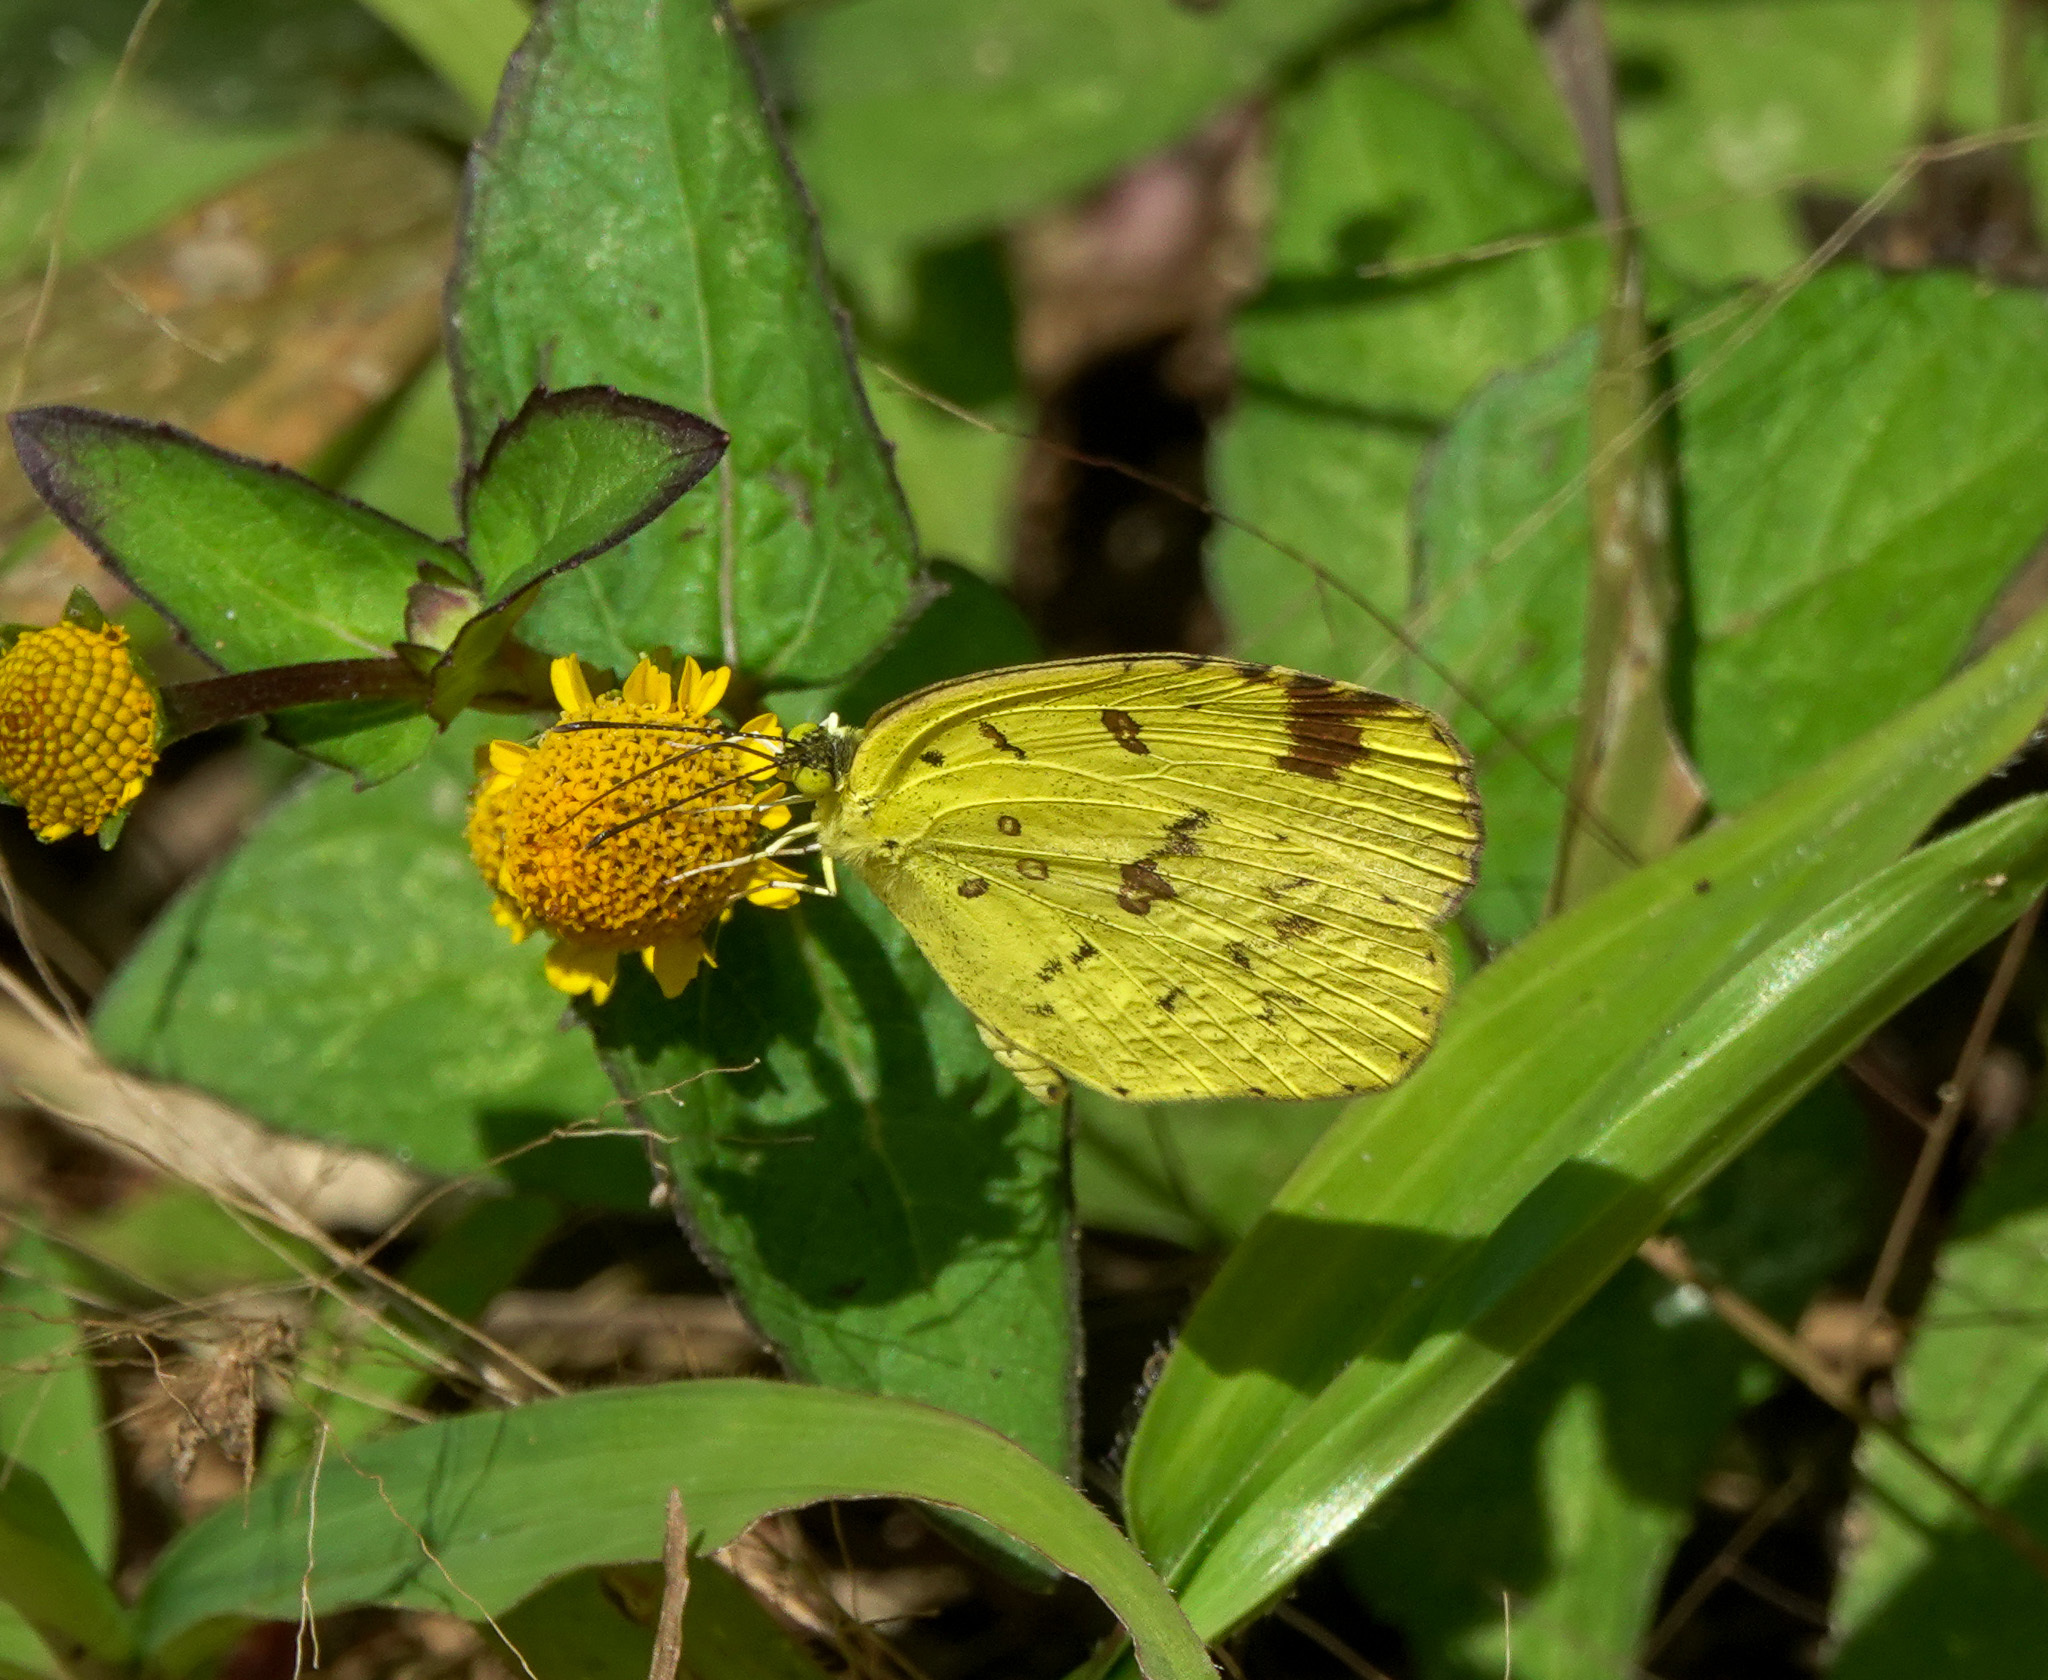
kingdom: Animalia
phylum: Arthropoda
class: Insecta
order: Lepidoptera
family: Pieridae
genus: Eurema
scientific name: Eurema hecabe
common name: Pale grass yellow
